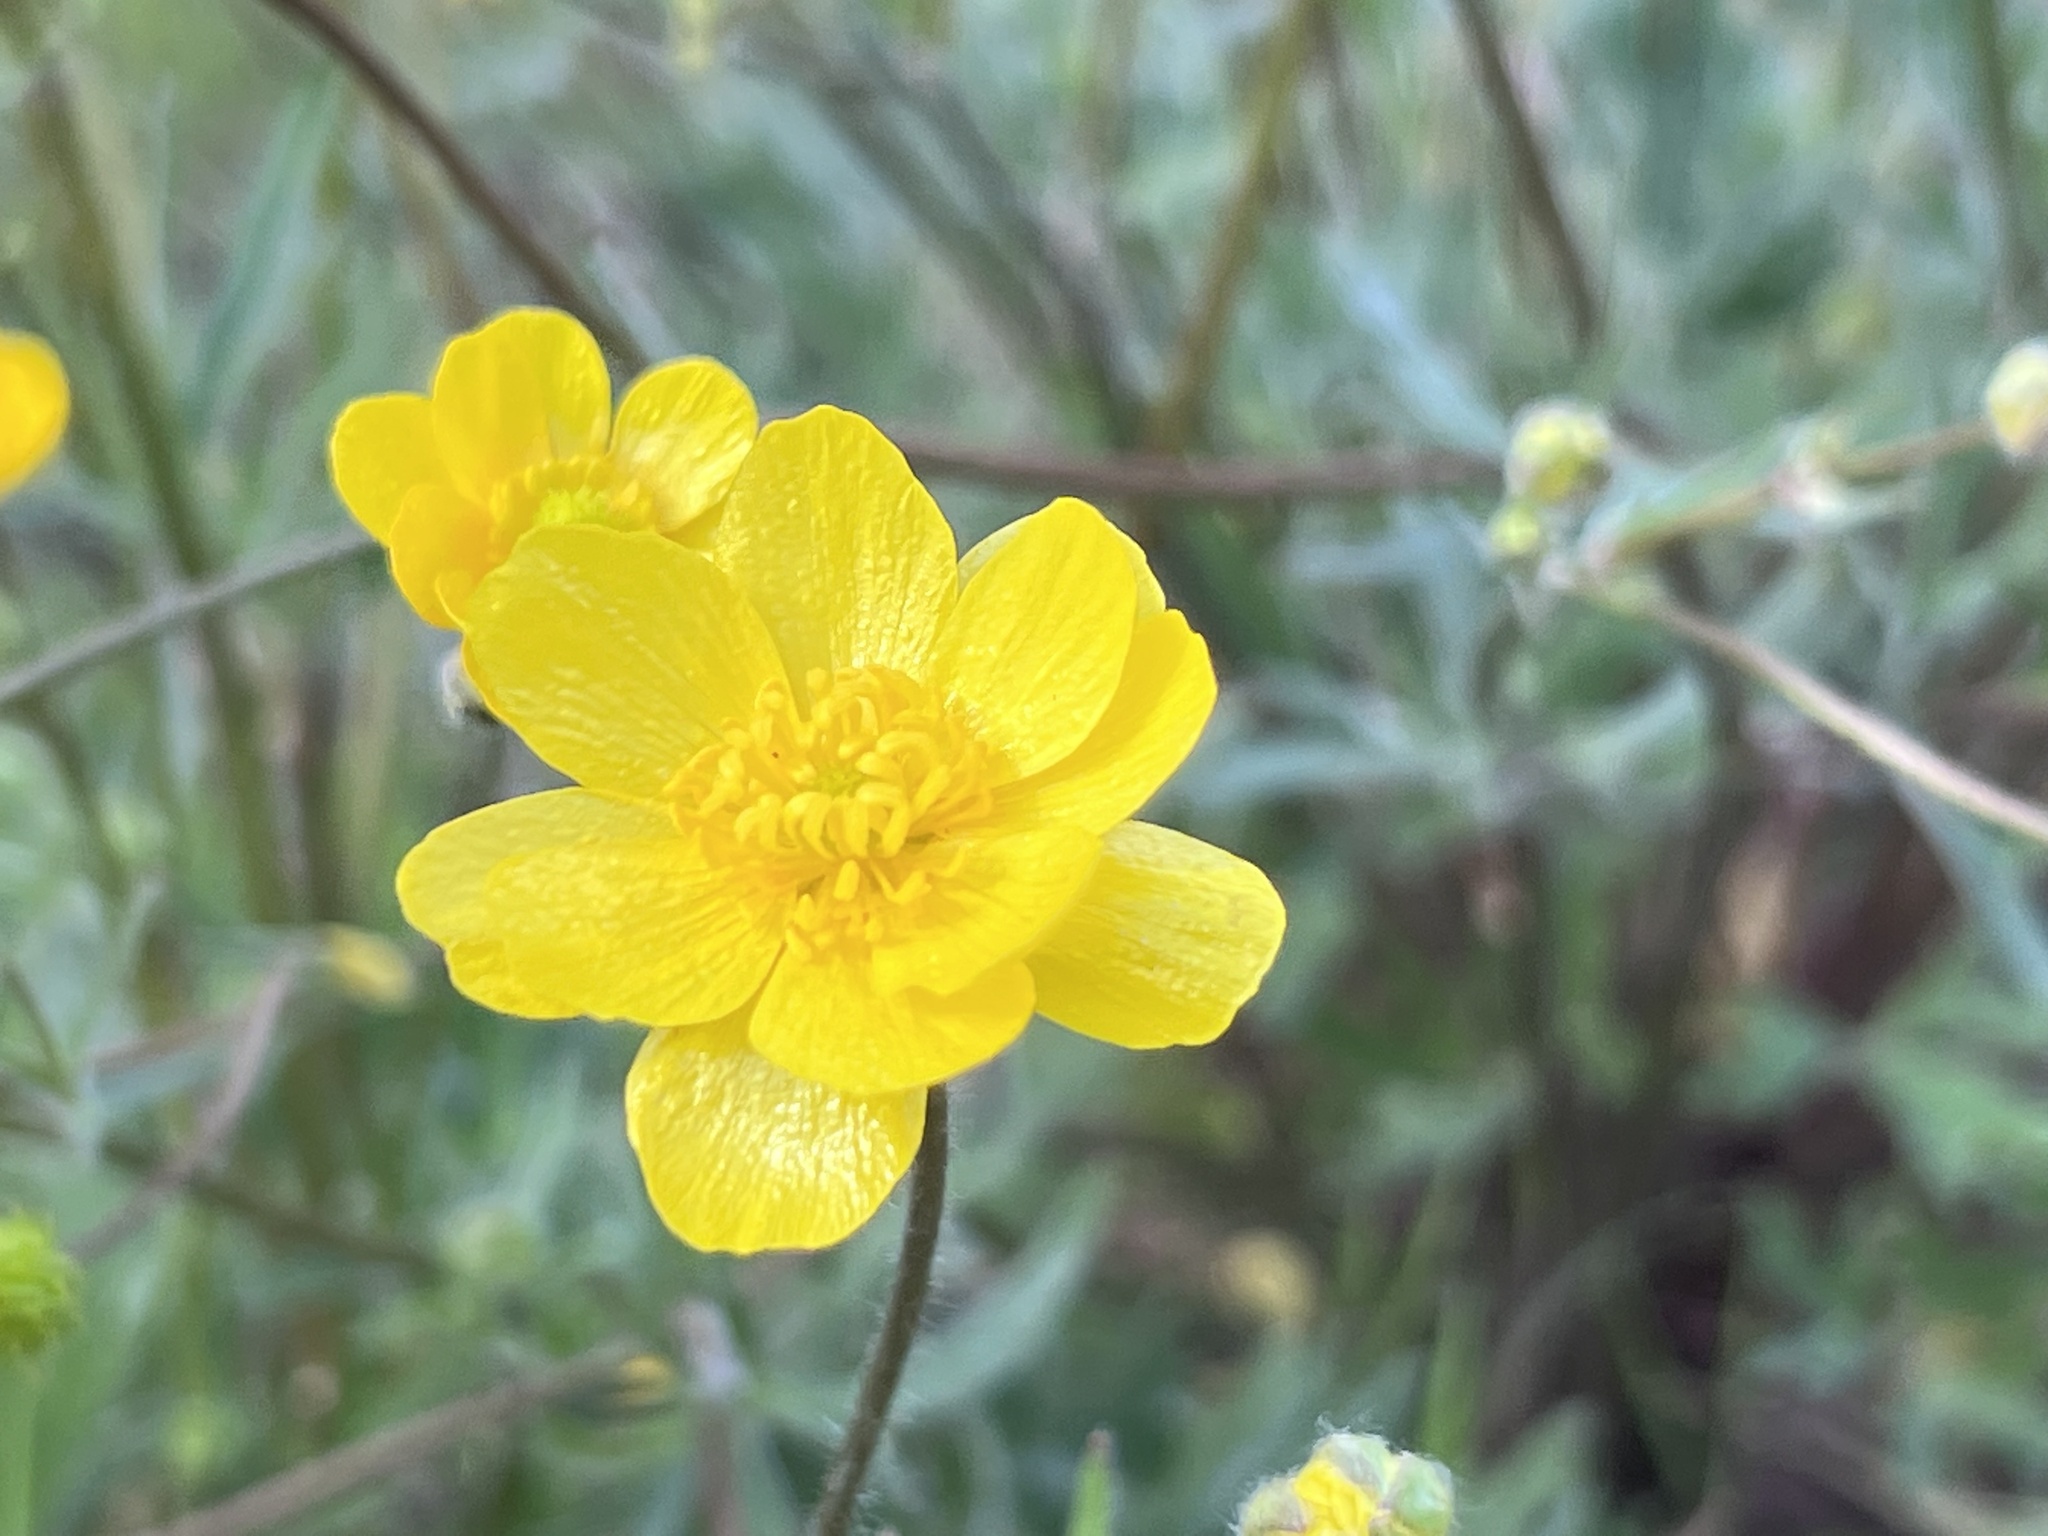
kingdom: Plantae
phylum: Tracheophyta
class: Magnoliopsida
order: Ranunculales
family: Ranunculaceae
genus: Ranunculus
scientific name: Ranunculus californicus
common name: California buttercup
